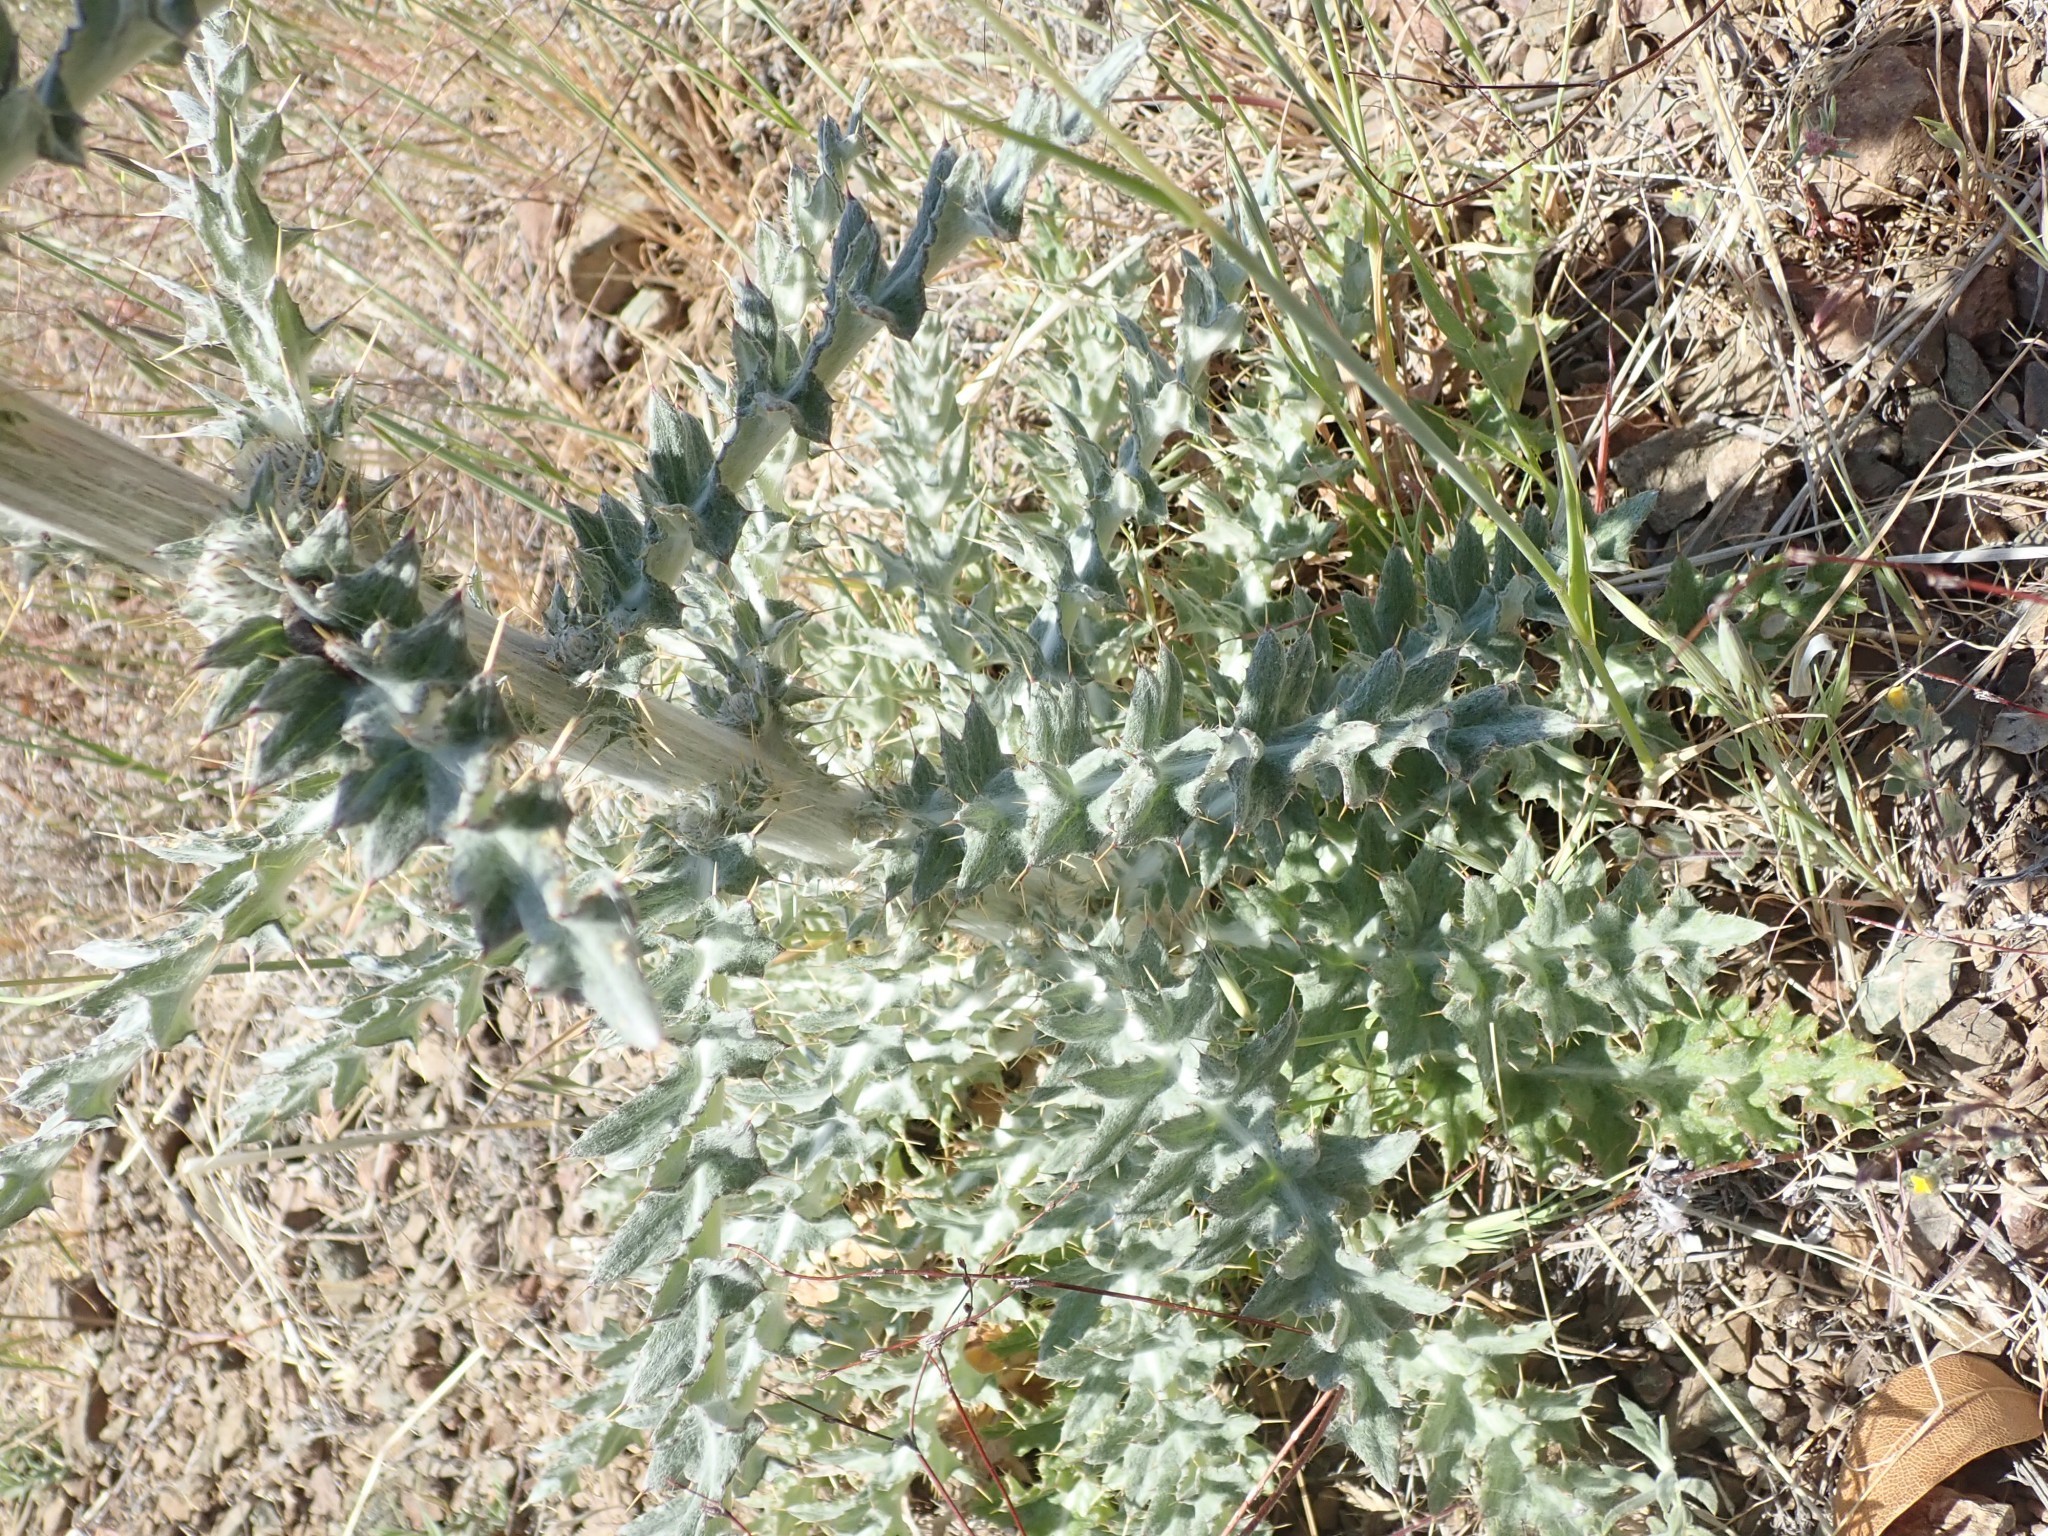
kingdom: Plantae
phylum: Tracheophyta
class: Magnoliopsida
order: Asterales
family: Asteraceae
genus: Cirsium
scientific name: Cirsium occidentale
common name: Western thistle
